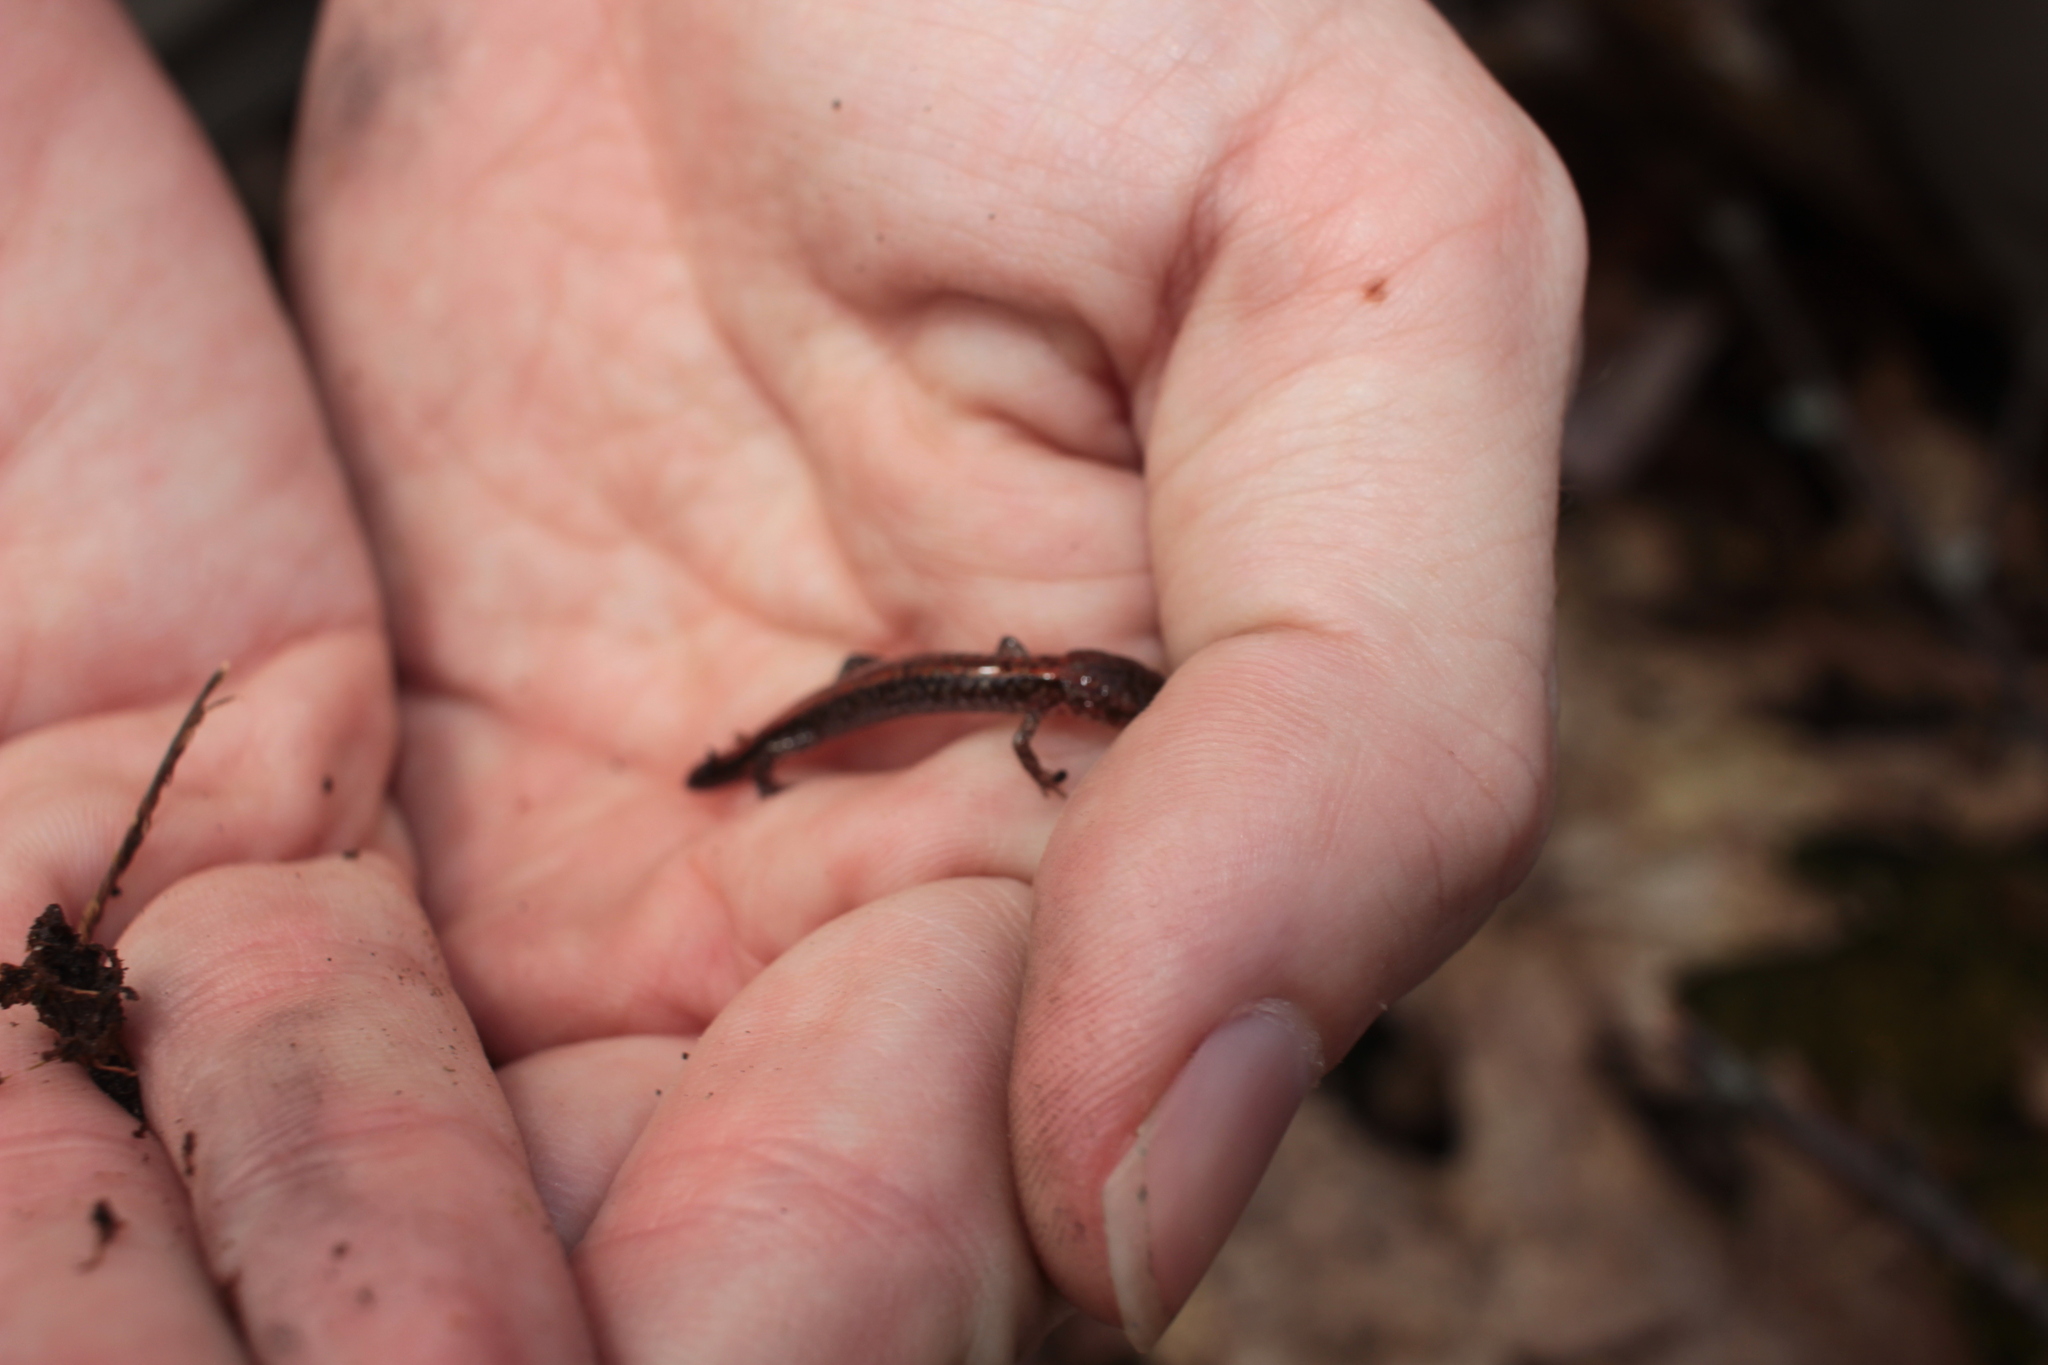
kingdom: Animalia
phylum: Chordata
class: Amphibia
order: Caudata
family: Plethodontidae
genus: Plethodon
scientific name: Plethodon sherando
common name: Big levels salamander
